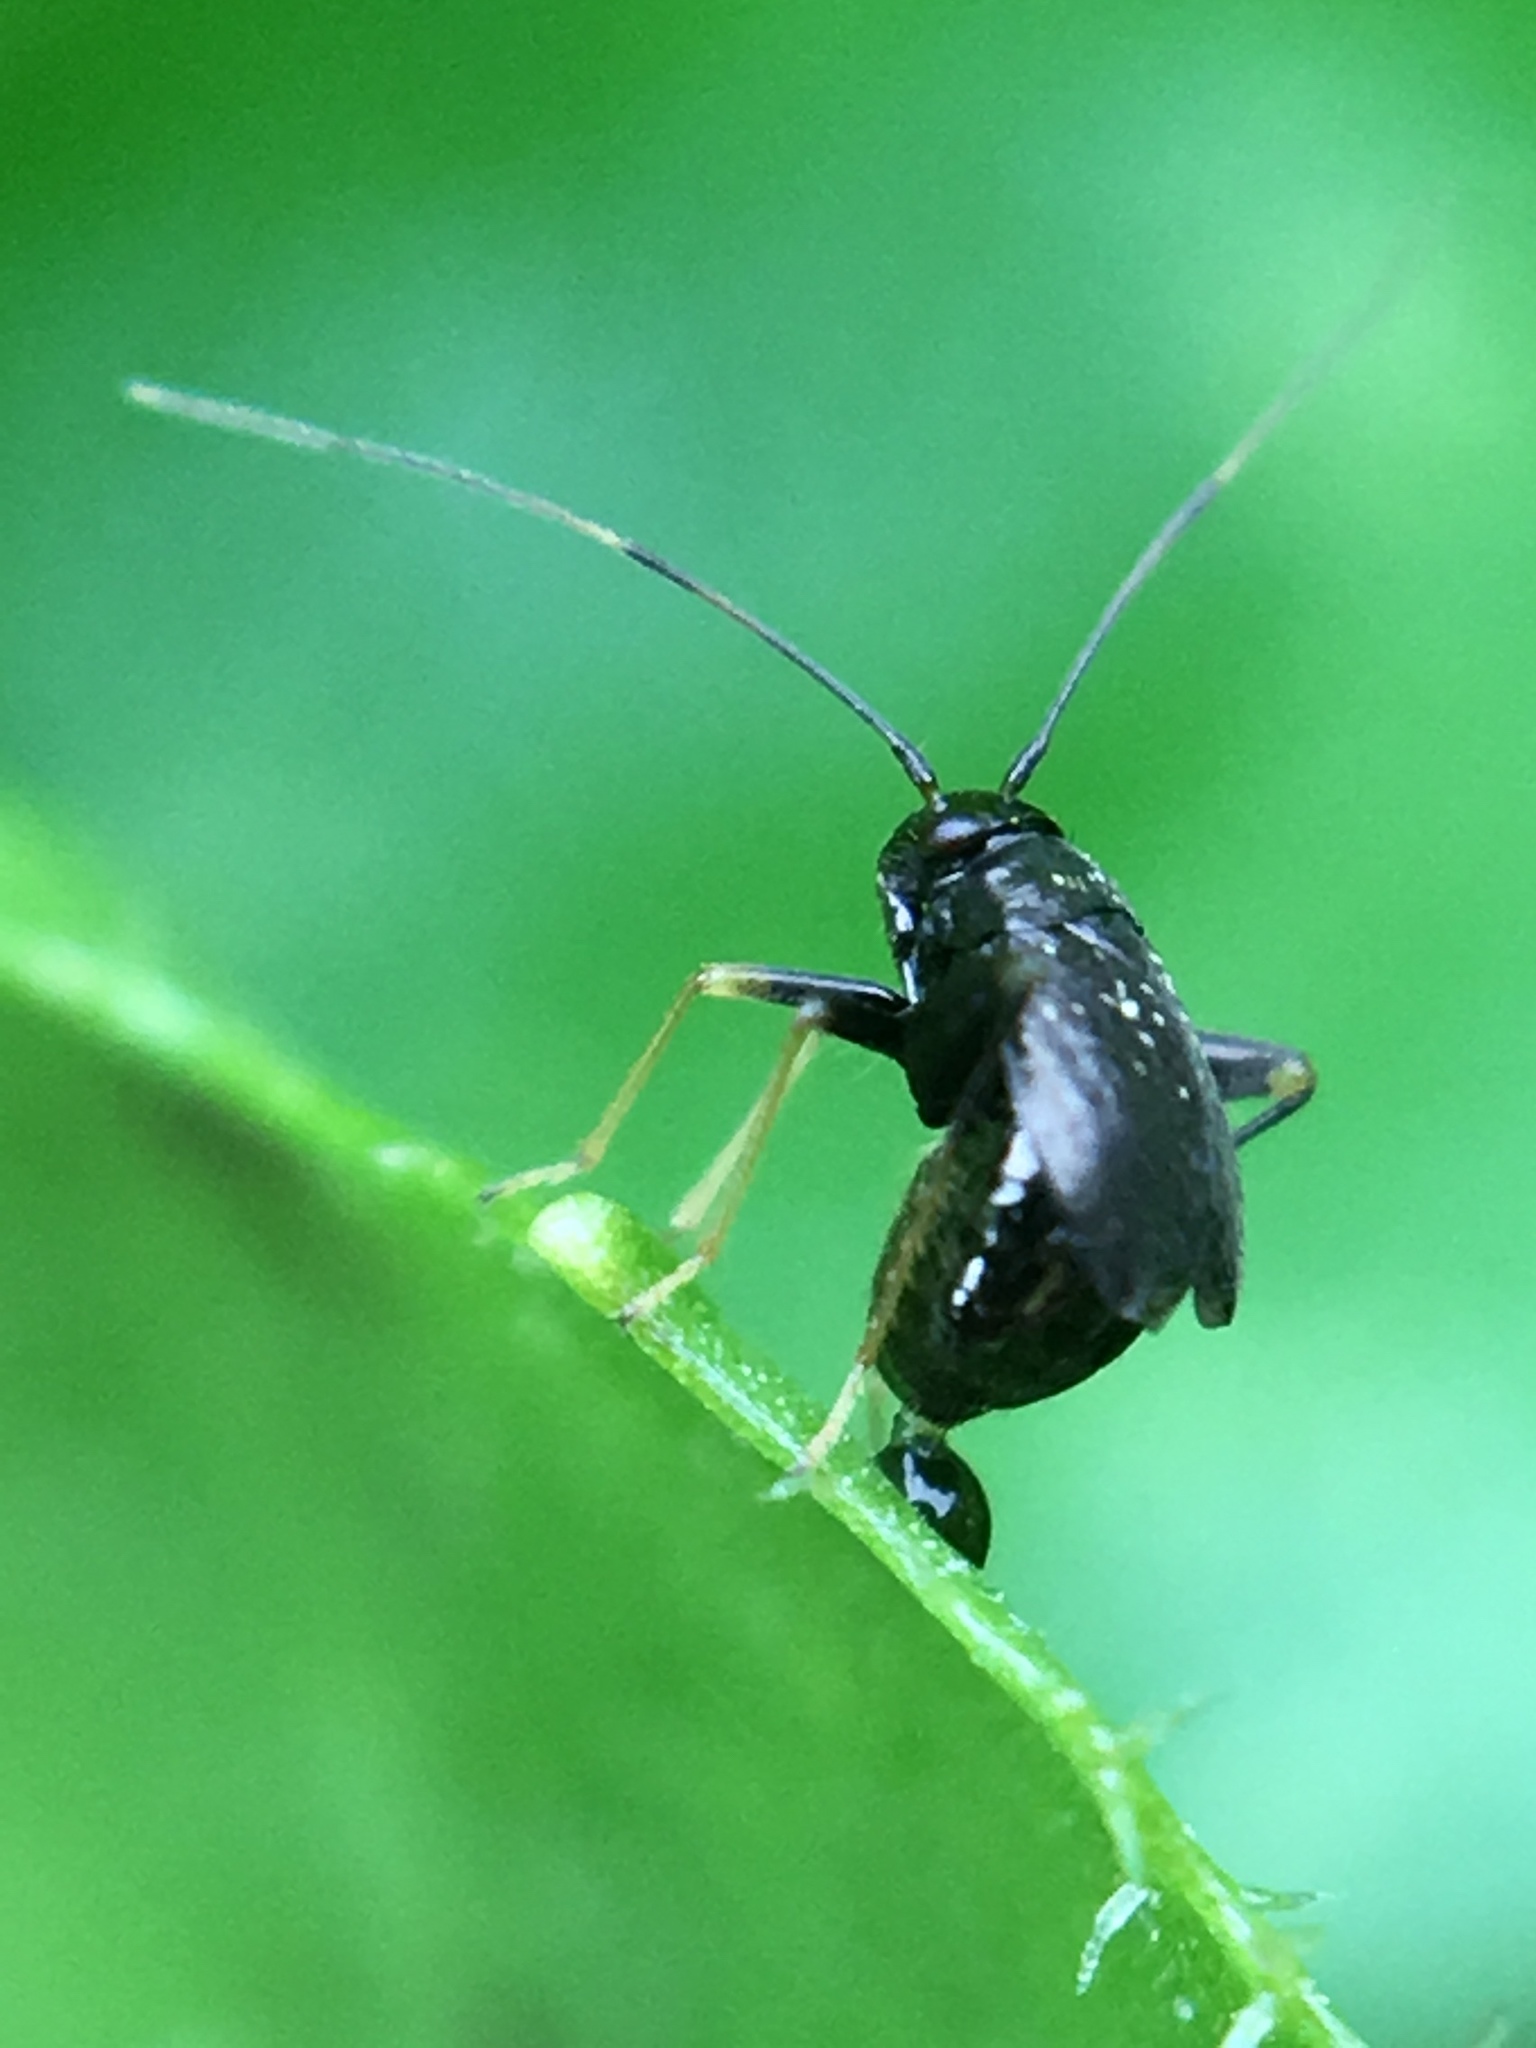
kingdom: Animalia
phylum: Arthropoda
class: Insecta
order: Hemiptera
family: Miridae
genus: Microtechnites
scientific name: Microtechnites bractatus
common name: Garden fleahopper
